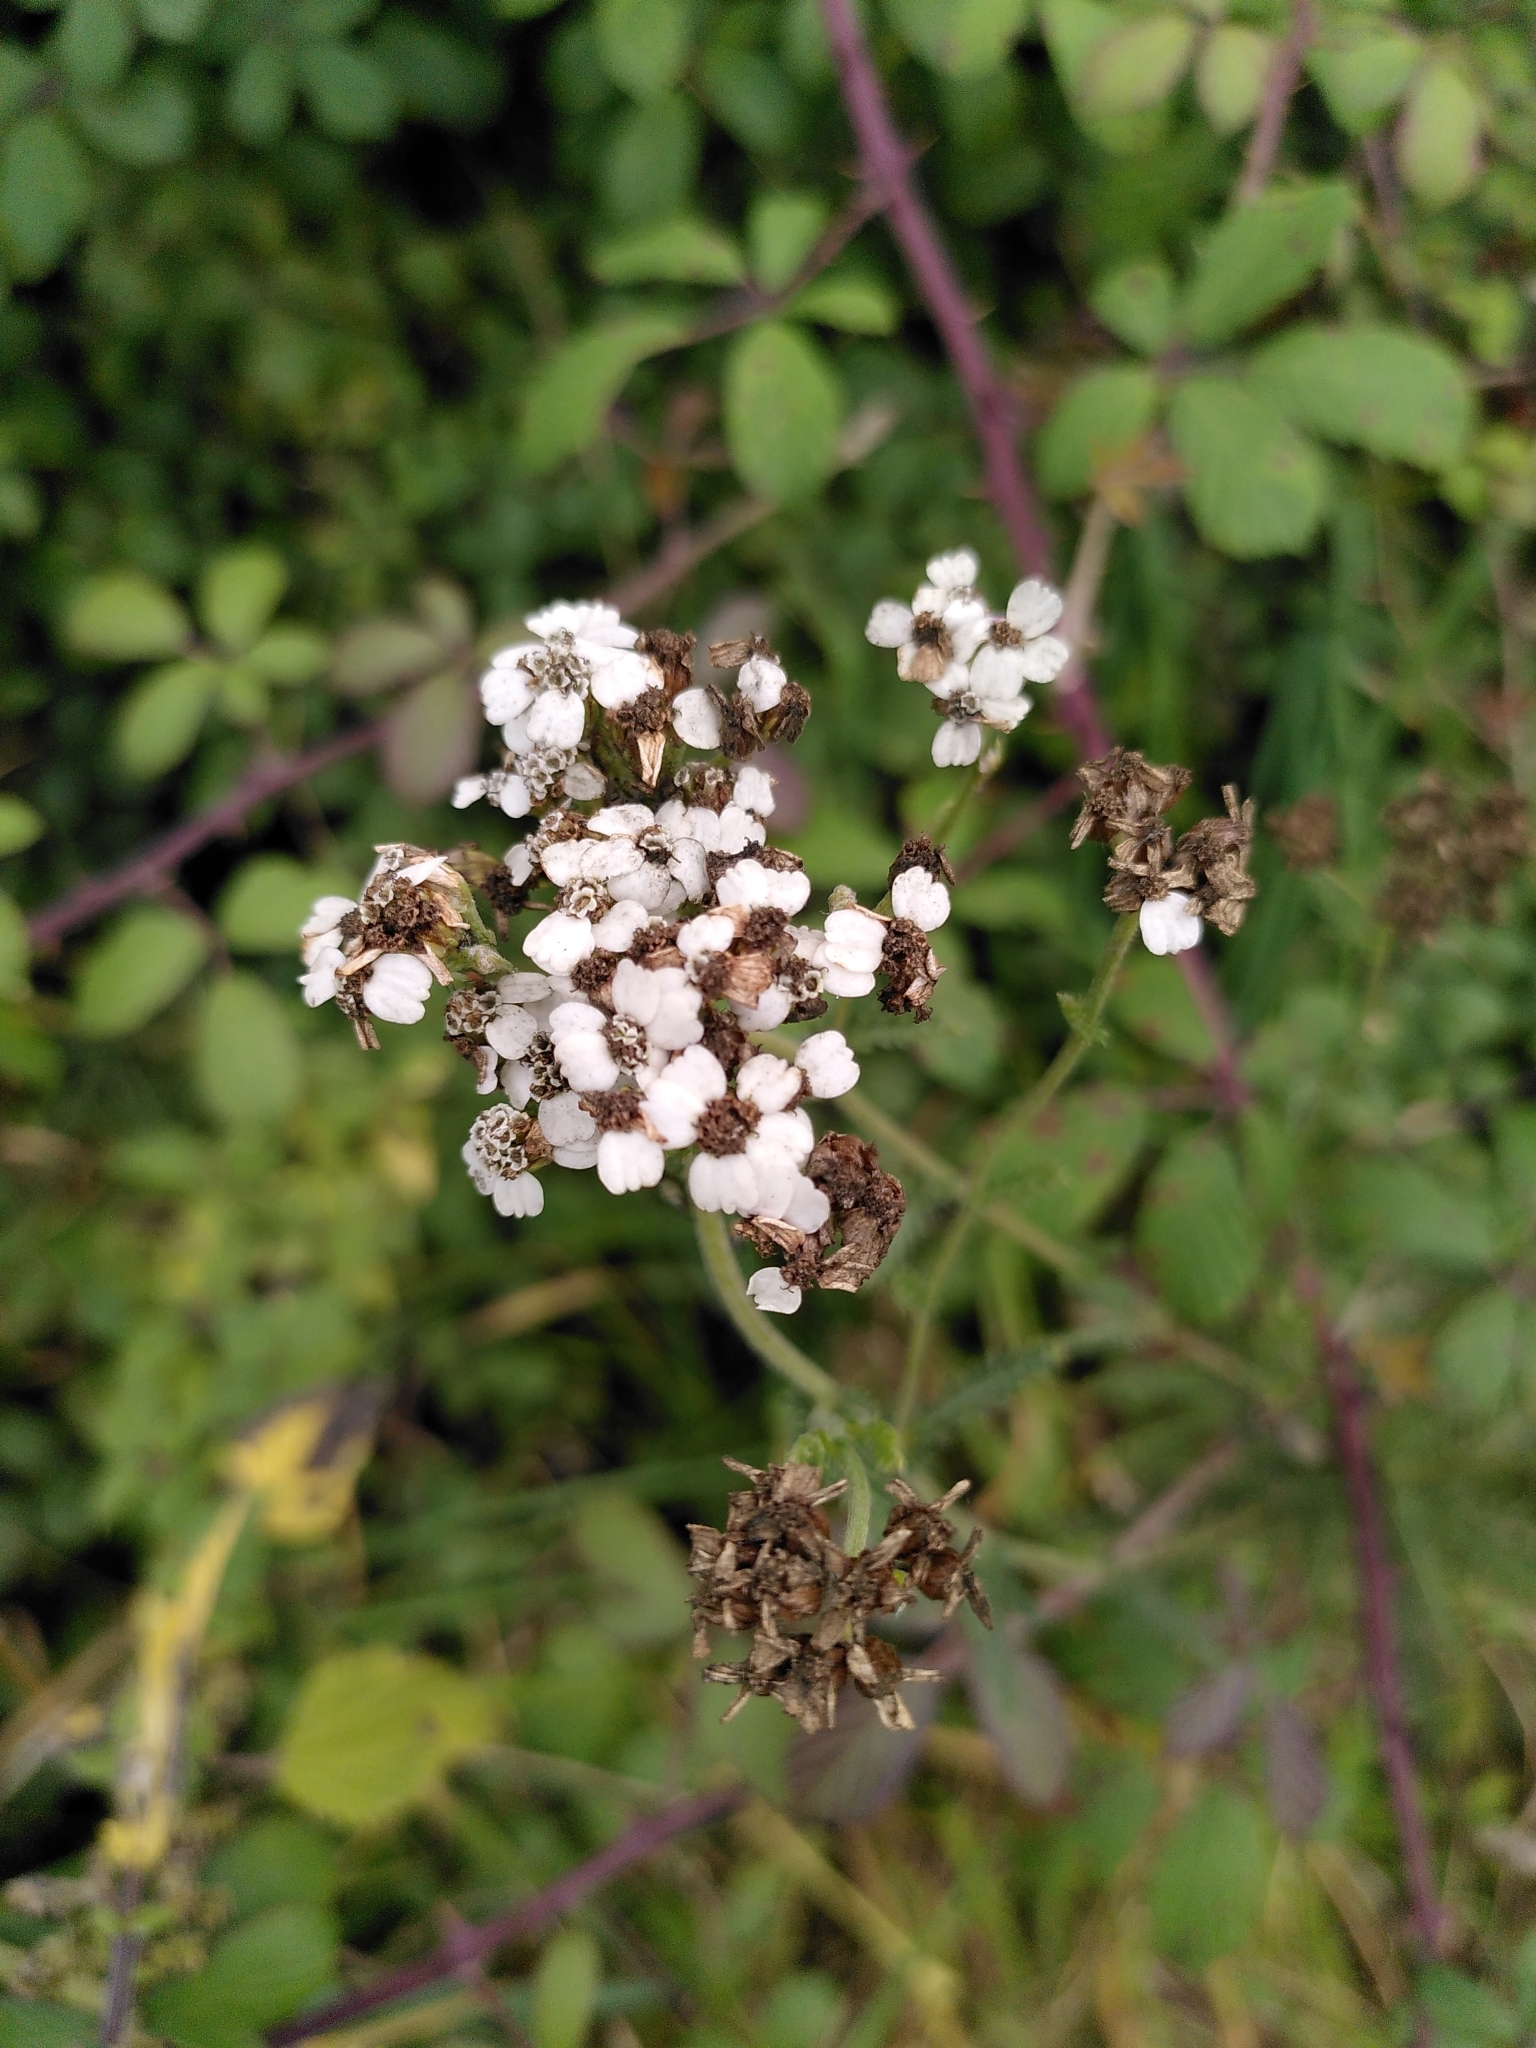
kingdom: Plantae
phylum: Tracheophyta
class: Magnoliopsida
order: Asterales
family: Asteraceae
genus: Achillea
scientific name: Achillea millefolium
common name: Yarrow
